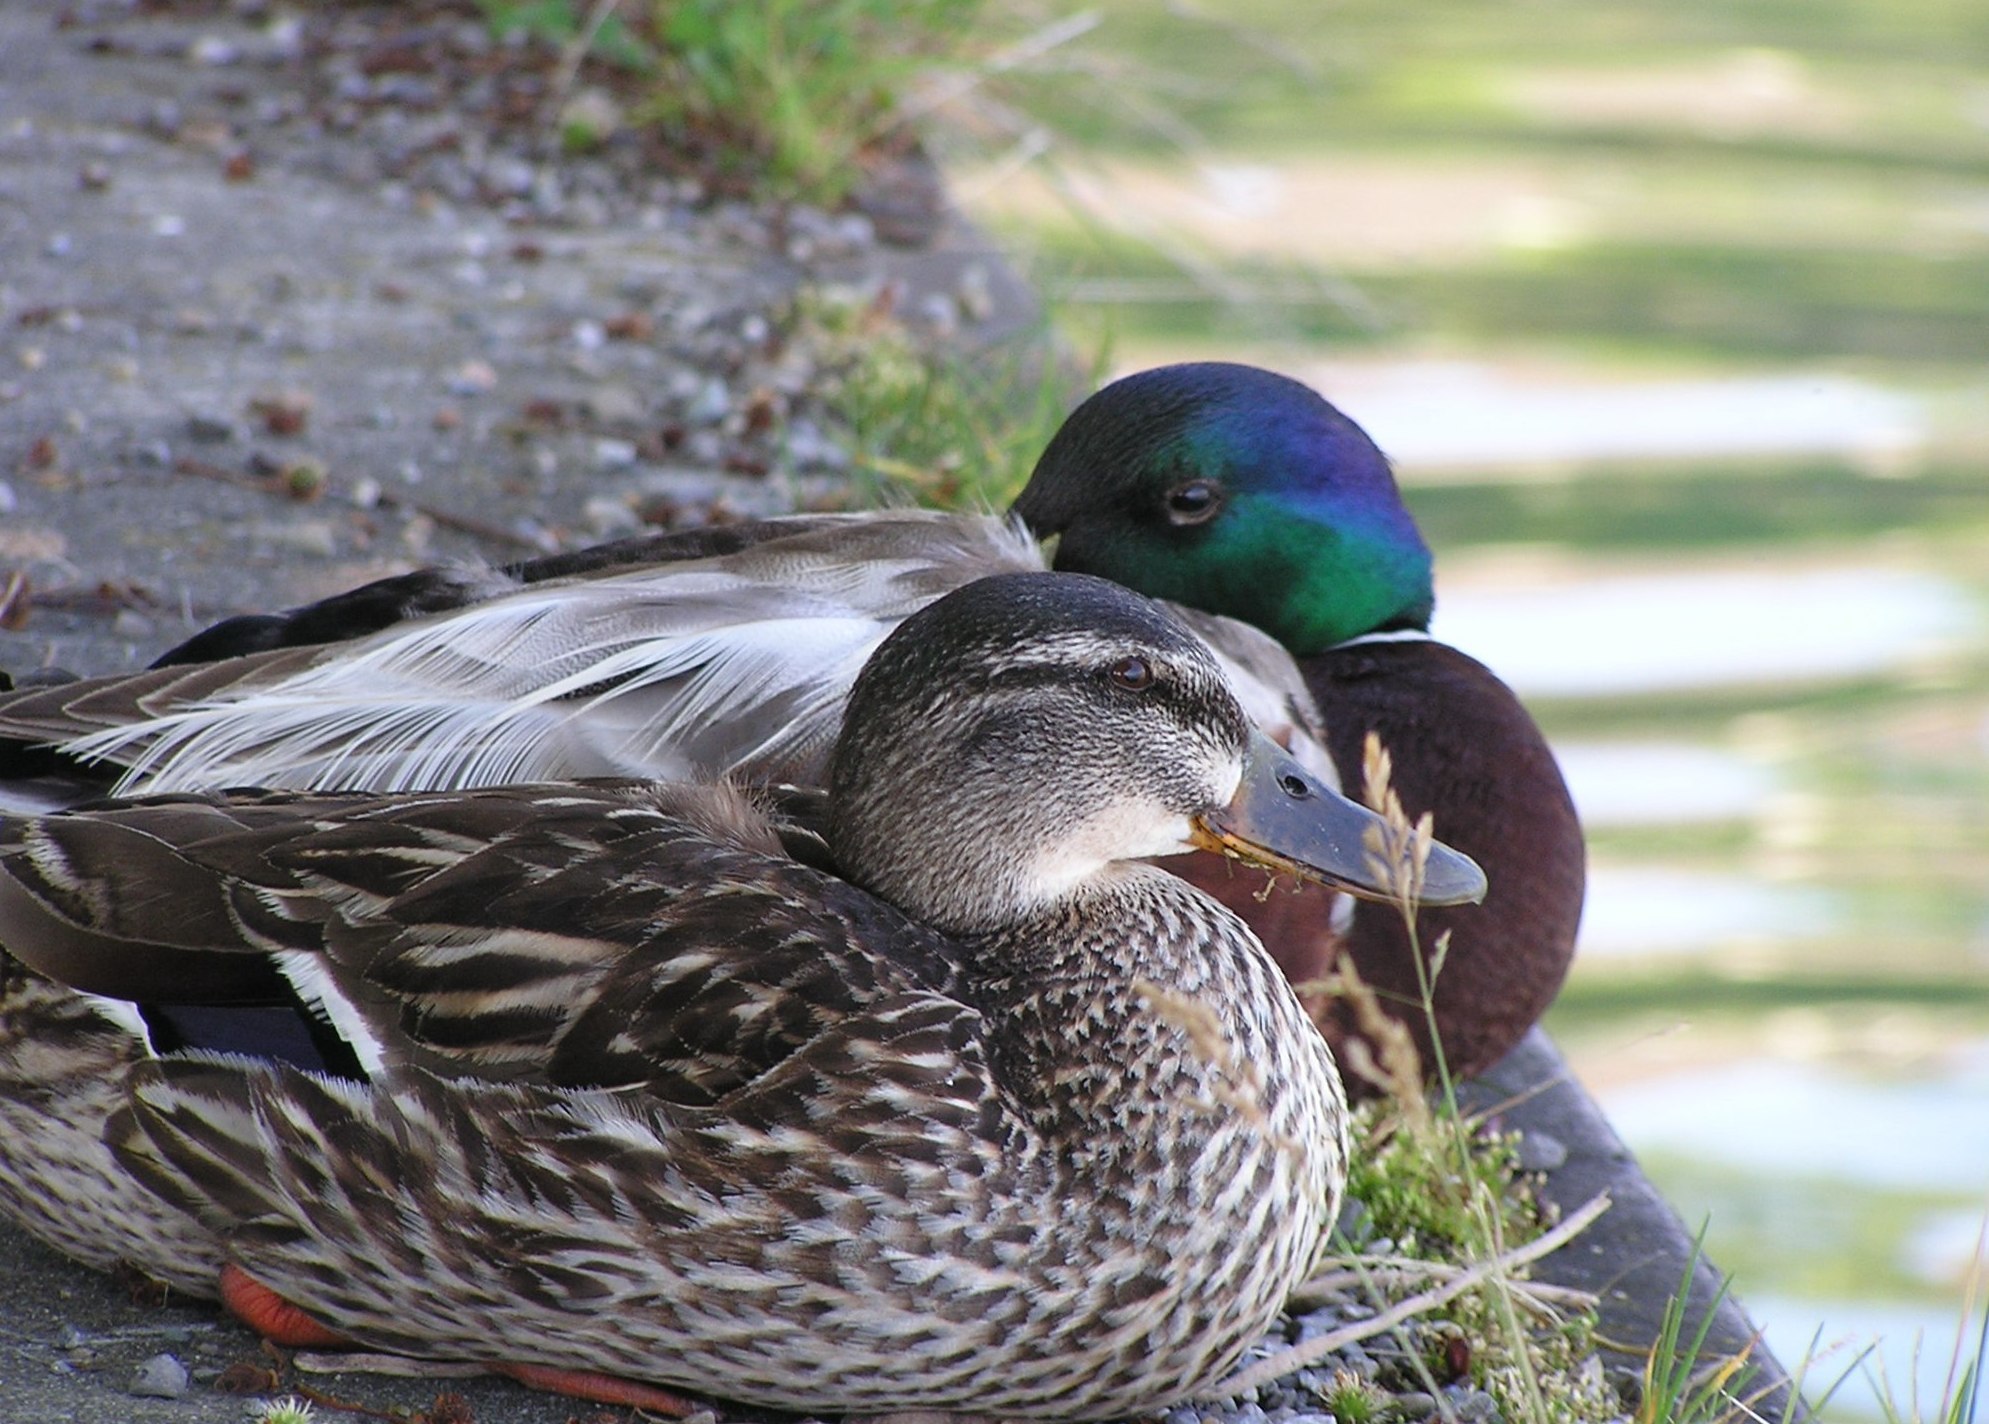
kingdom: Animalia
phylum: Chordata
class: Aves
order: Anseriformes
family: Anatidae
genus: Anas
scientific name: Anas platyrhynchos
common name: Mallard
